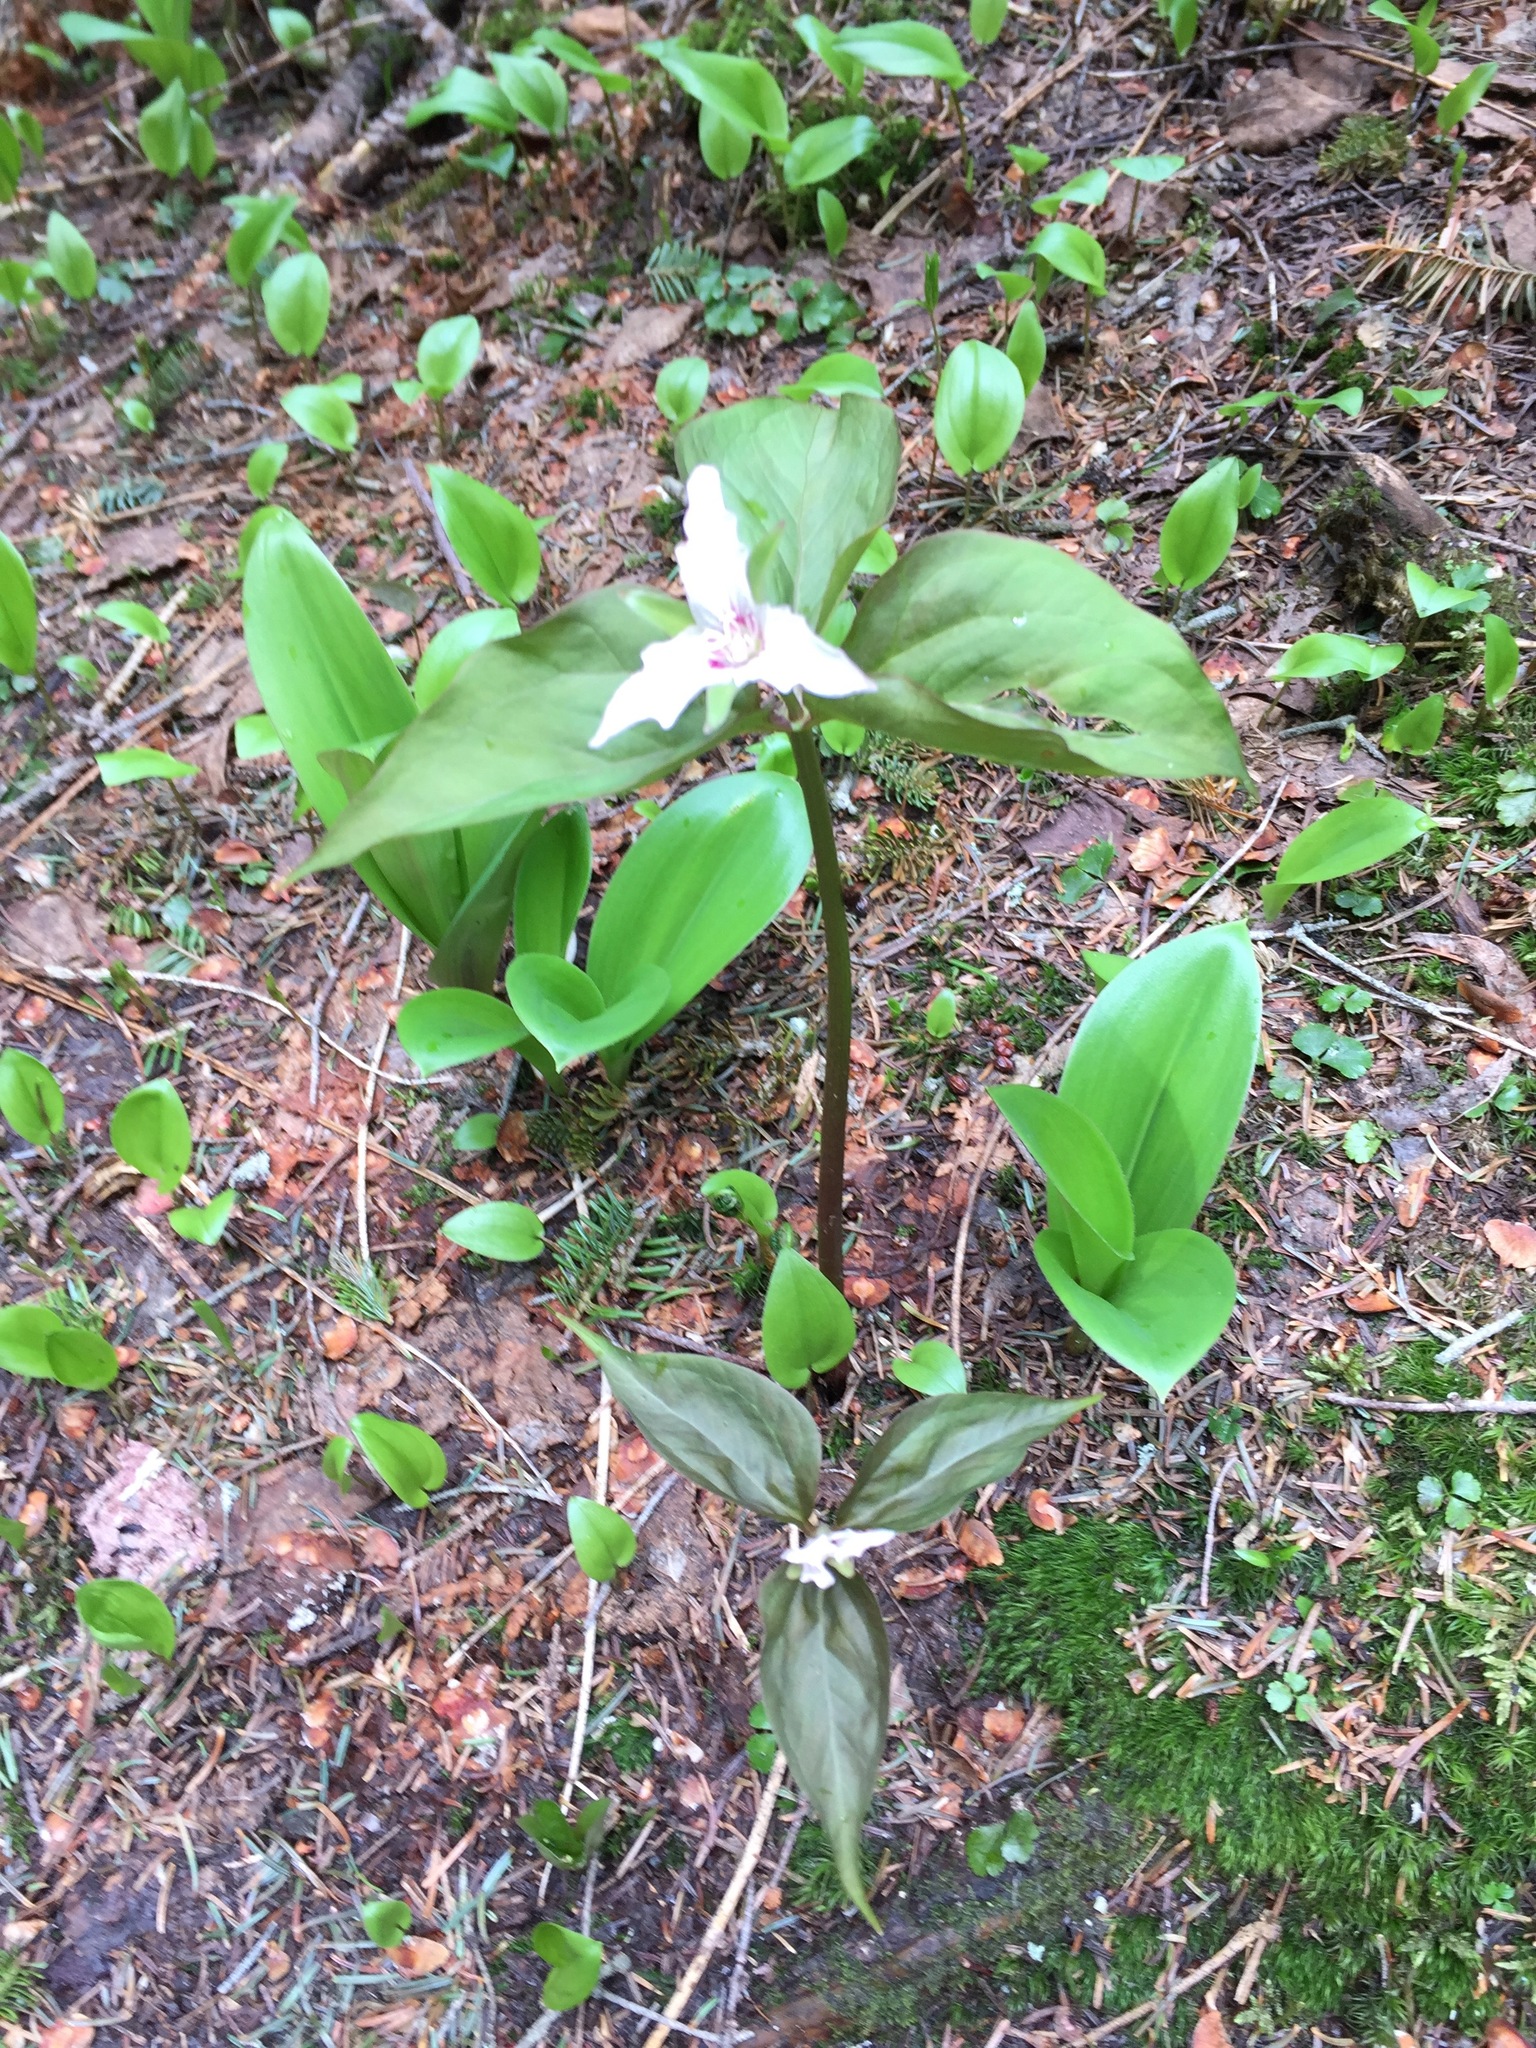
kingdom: Plantae
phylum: Tracheophyta
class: Liliopsida
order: Liliales
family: Melanthiaceae
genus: Trillium
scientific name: Trillium undulatum
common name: Paint trillium
